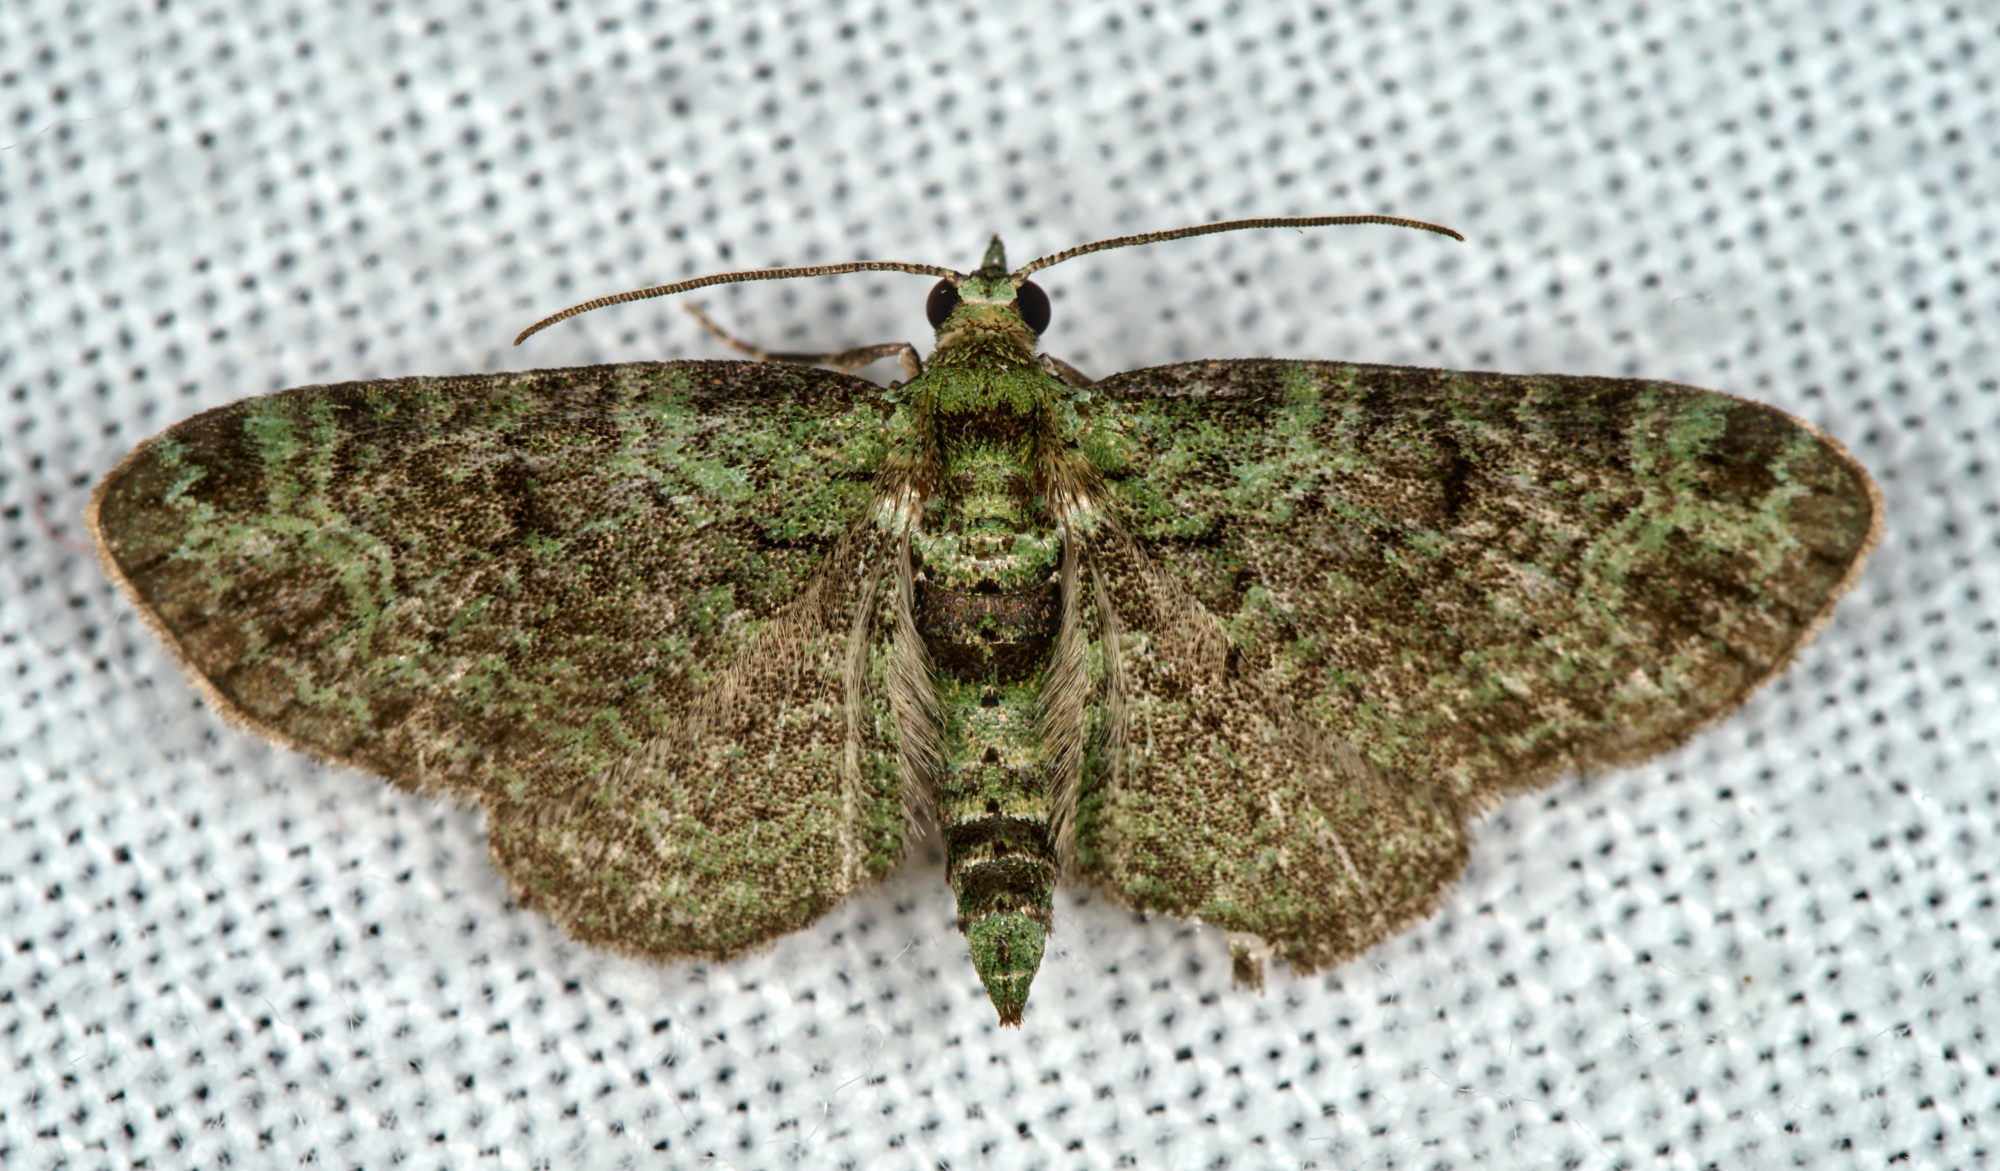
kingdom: Animalia
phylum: Arthropoda
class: Insecta
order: Lepidoptera
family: Geometridae
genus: Pasiphila
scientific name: Pasiphila rectangulata
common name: Green pug
